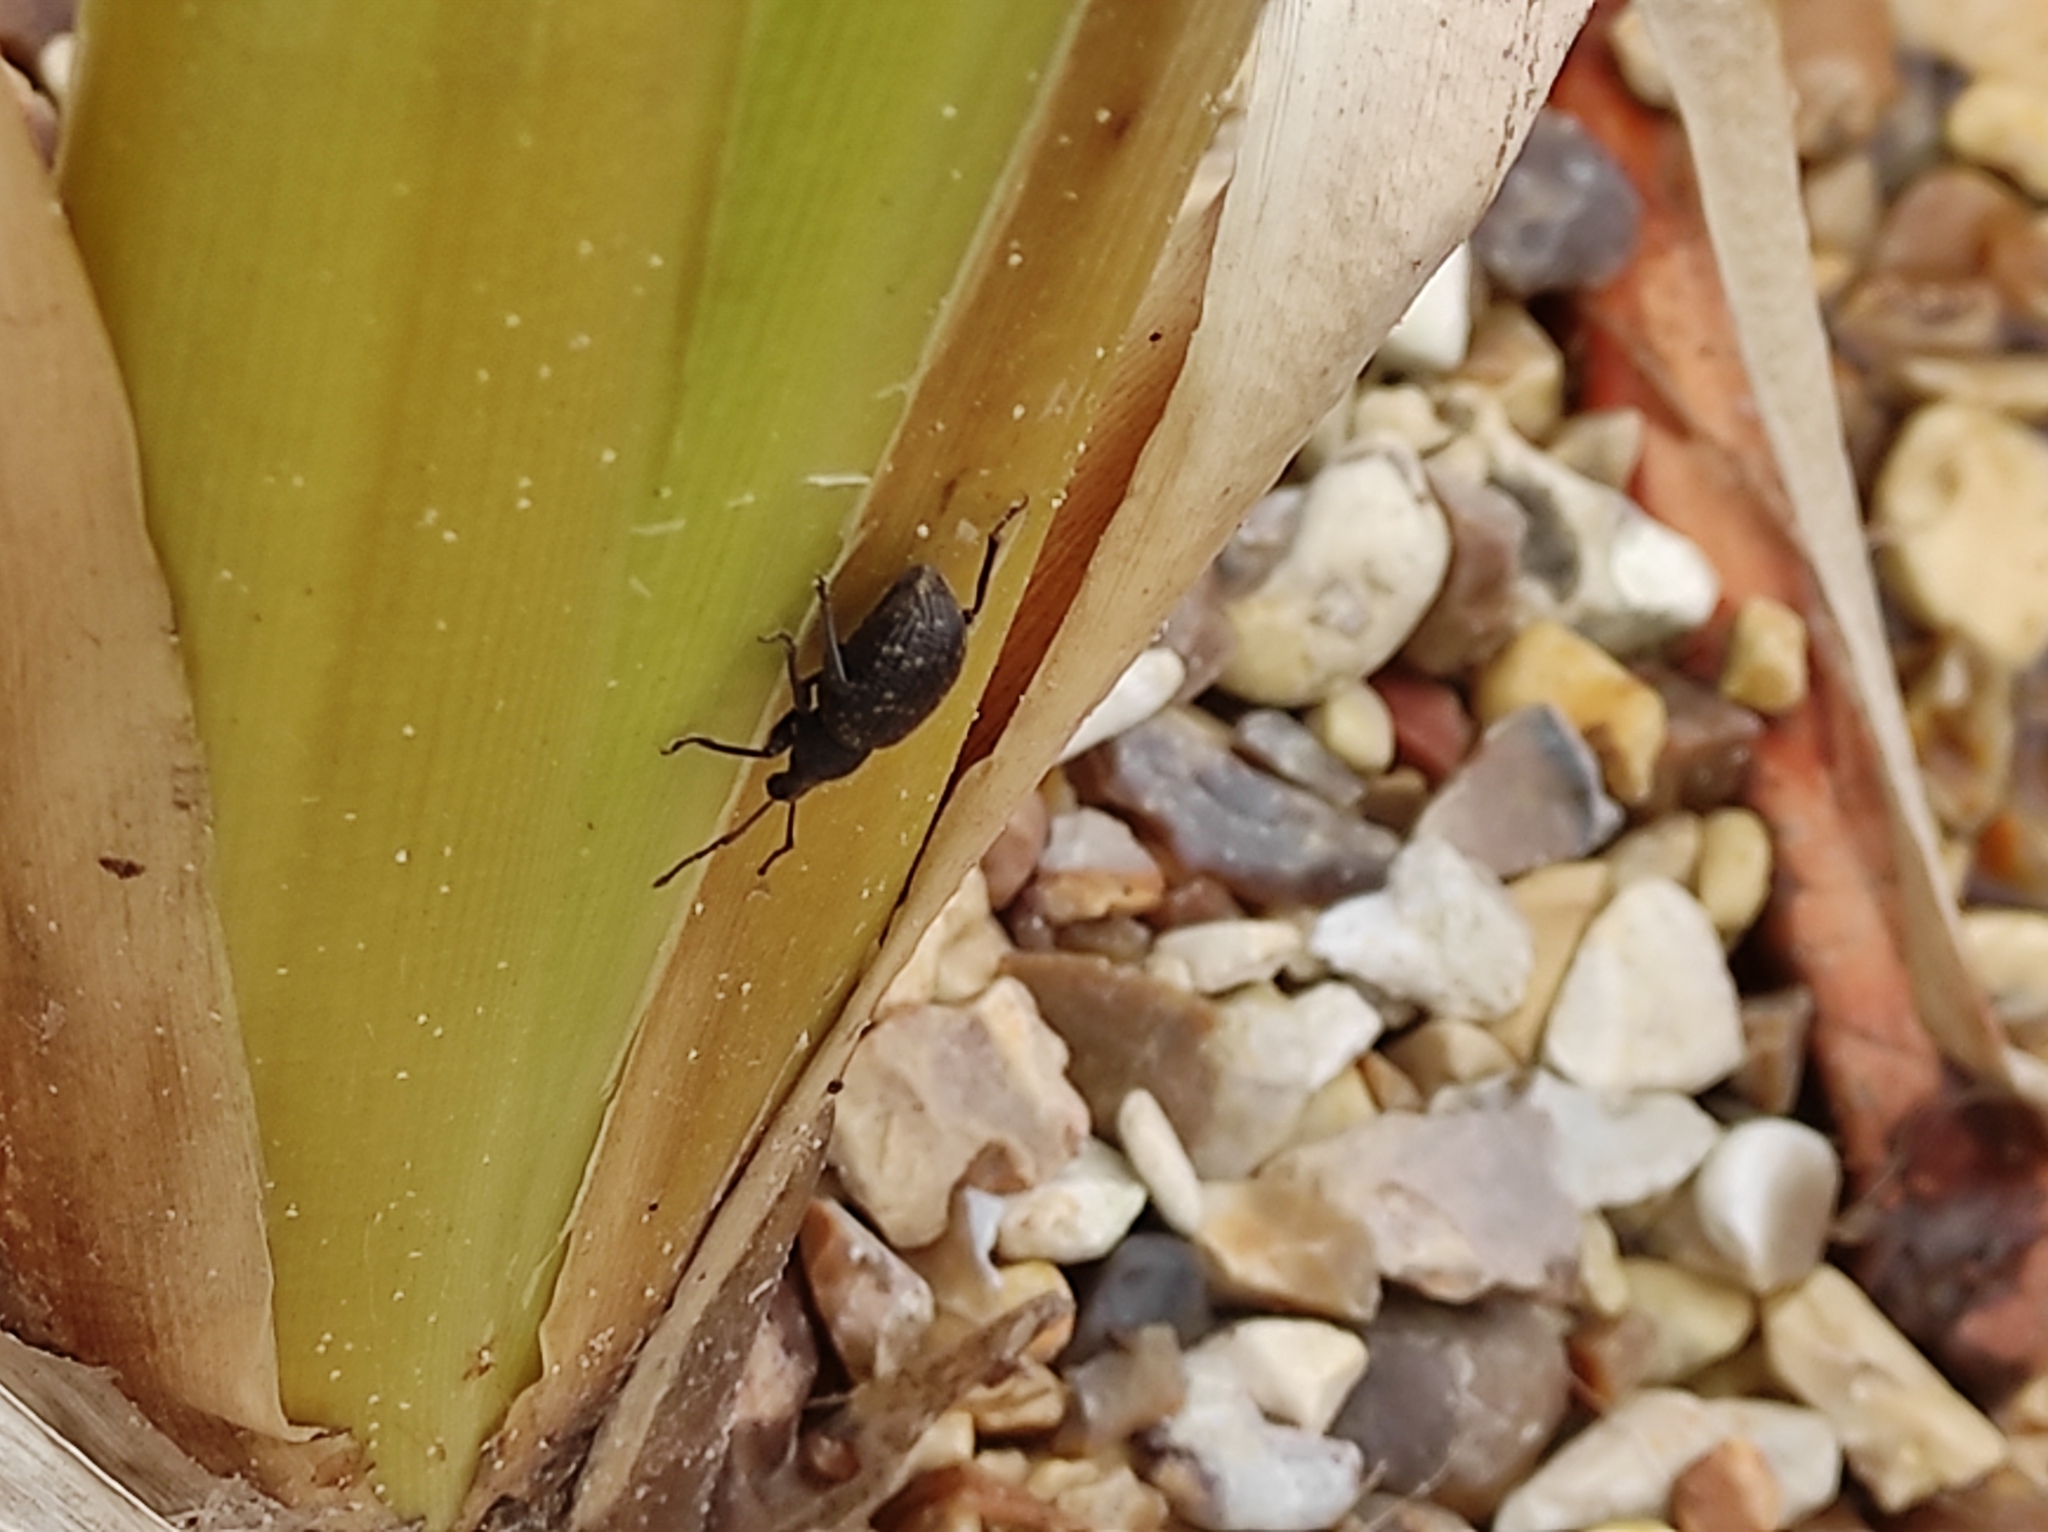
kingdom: Animalia
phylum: Arthropoda
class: Insecta
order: Coleoptera
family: Curculionidae
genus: Otiorhynchus
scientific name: Otiorhynchus sulcatus
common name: Black vine weevil
